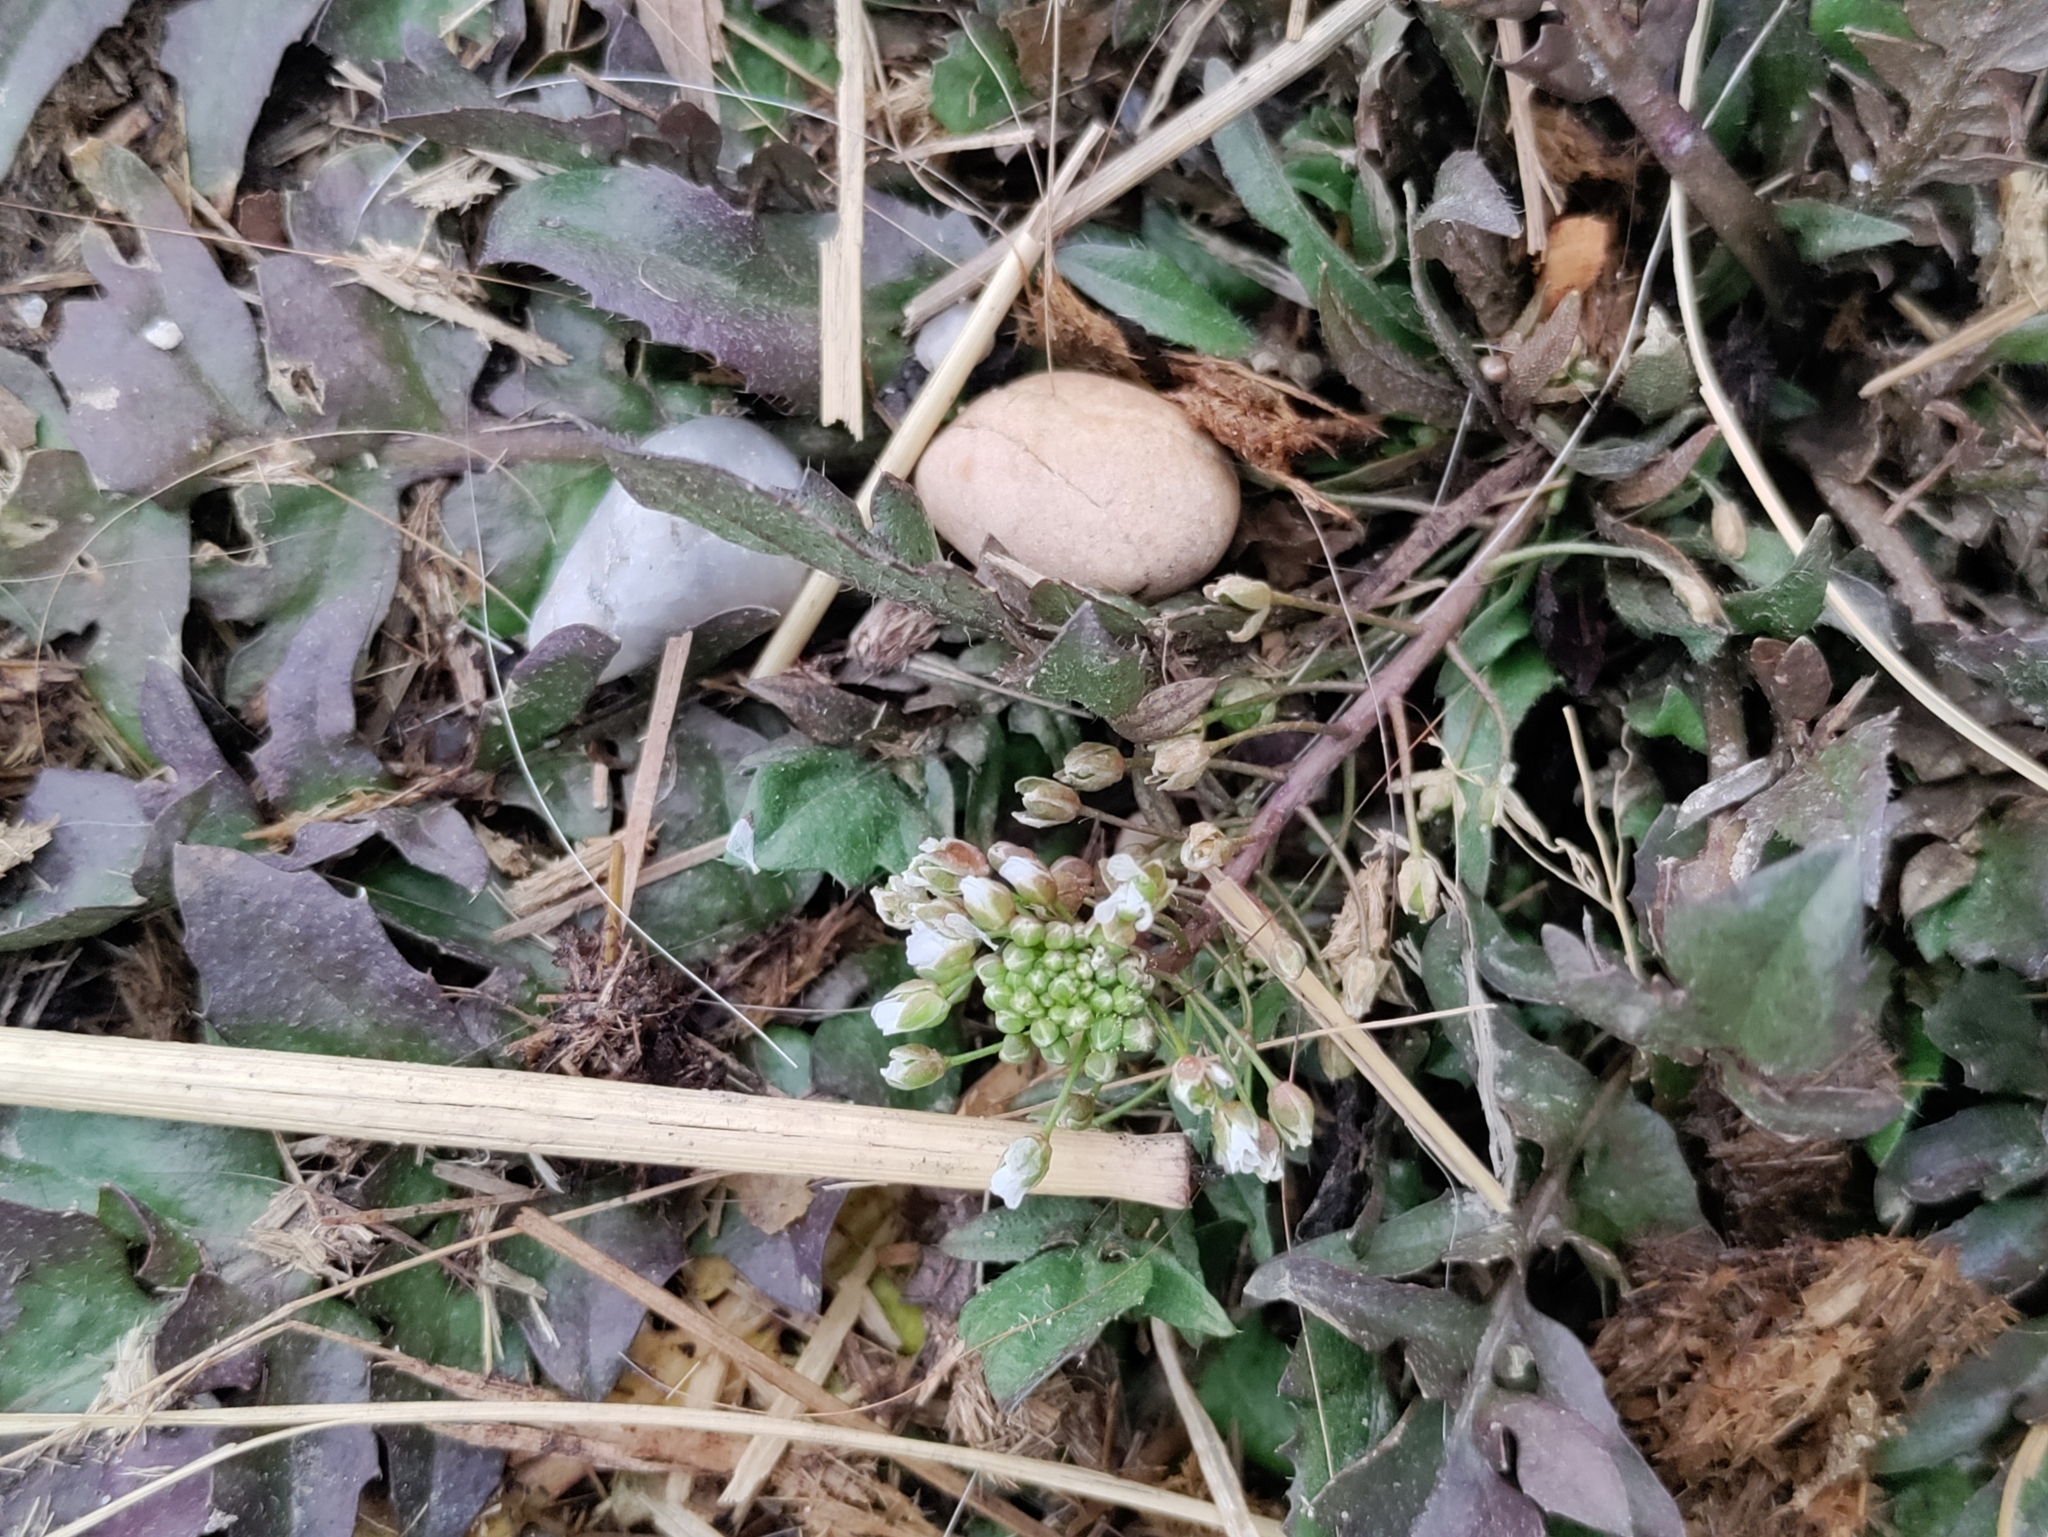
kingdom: Plantae
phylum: Tracheophyta
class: Magnoliopsida
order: Brassicales
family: Brassicaceae
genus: Capsella
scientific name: Capsella bursa-pastoris
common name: Shepherd's purse
